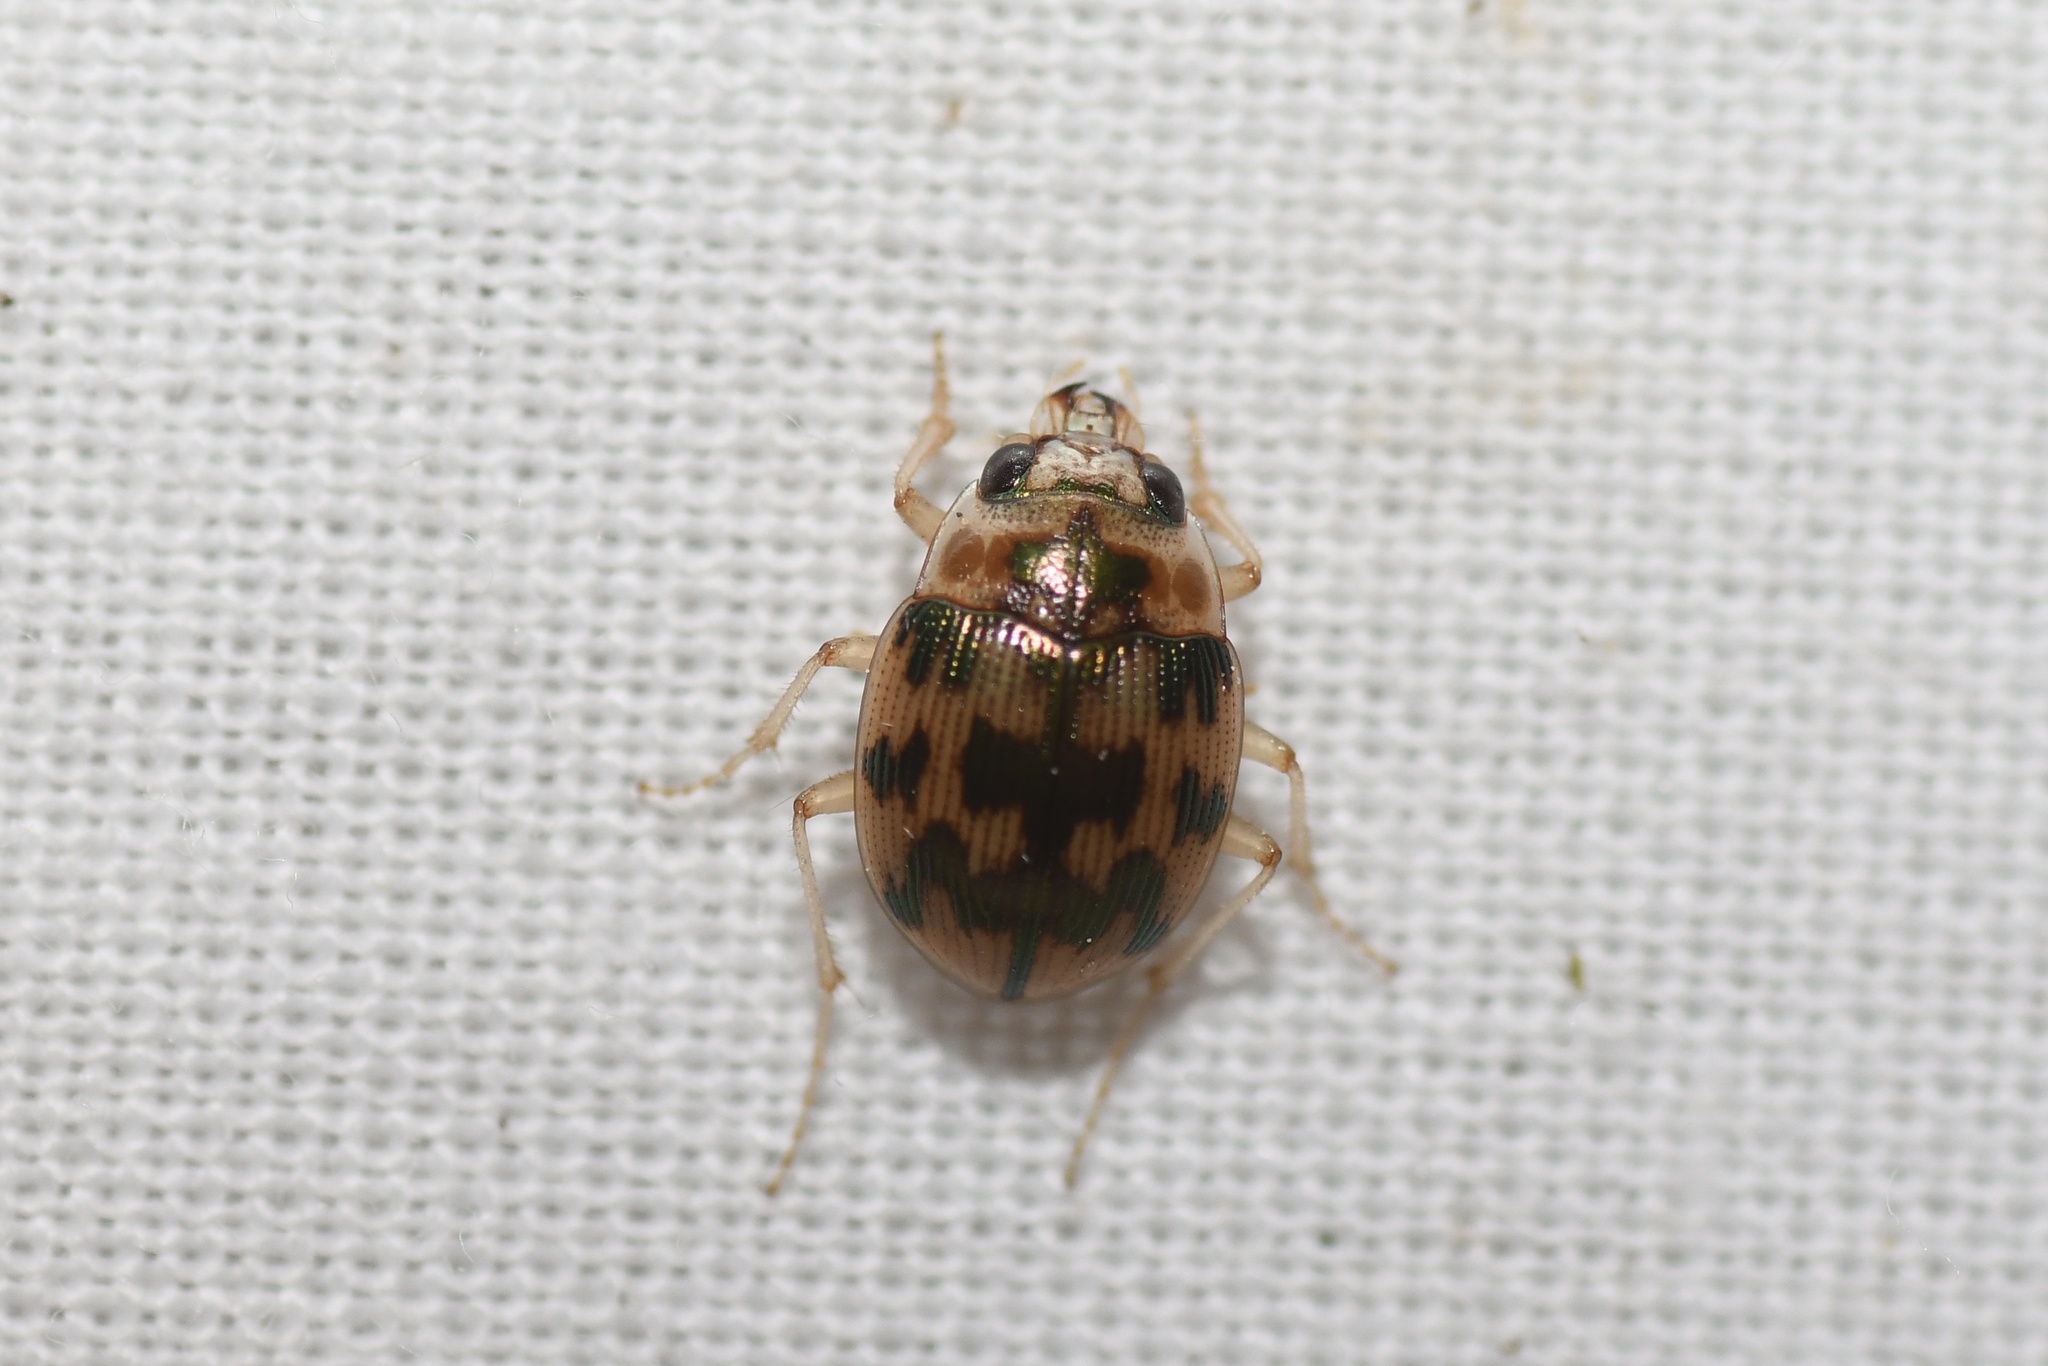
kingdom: Animalia
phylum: Arthropoda
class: Insecta
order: Coleoptera
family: Carabidae
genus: Omophron
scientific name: Omophron tessellatum
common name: Mosaic round sand beetle
